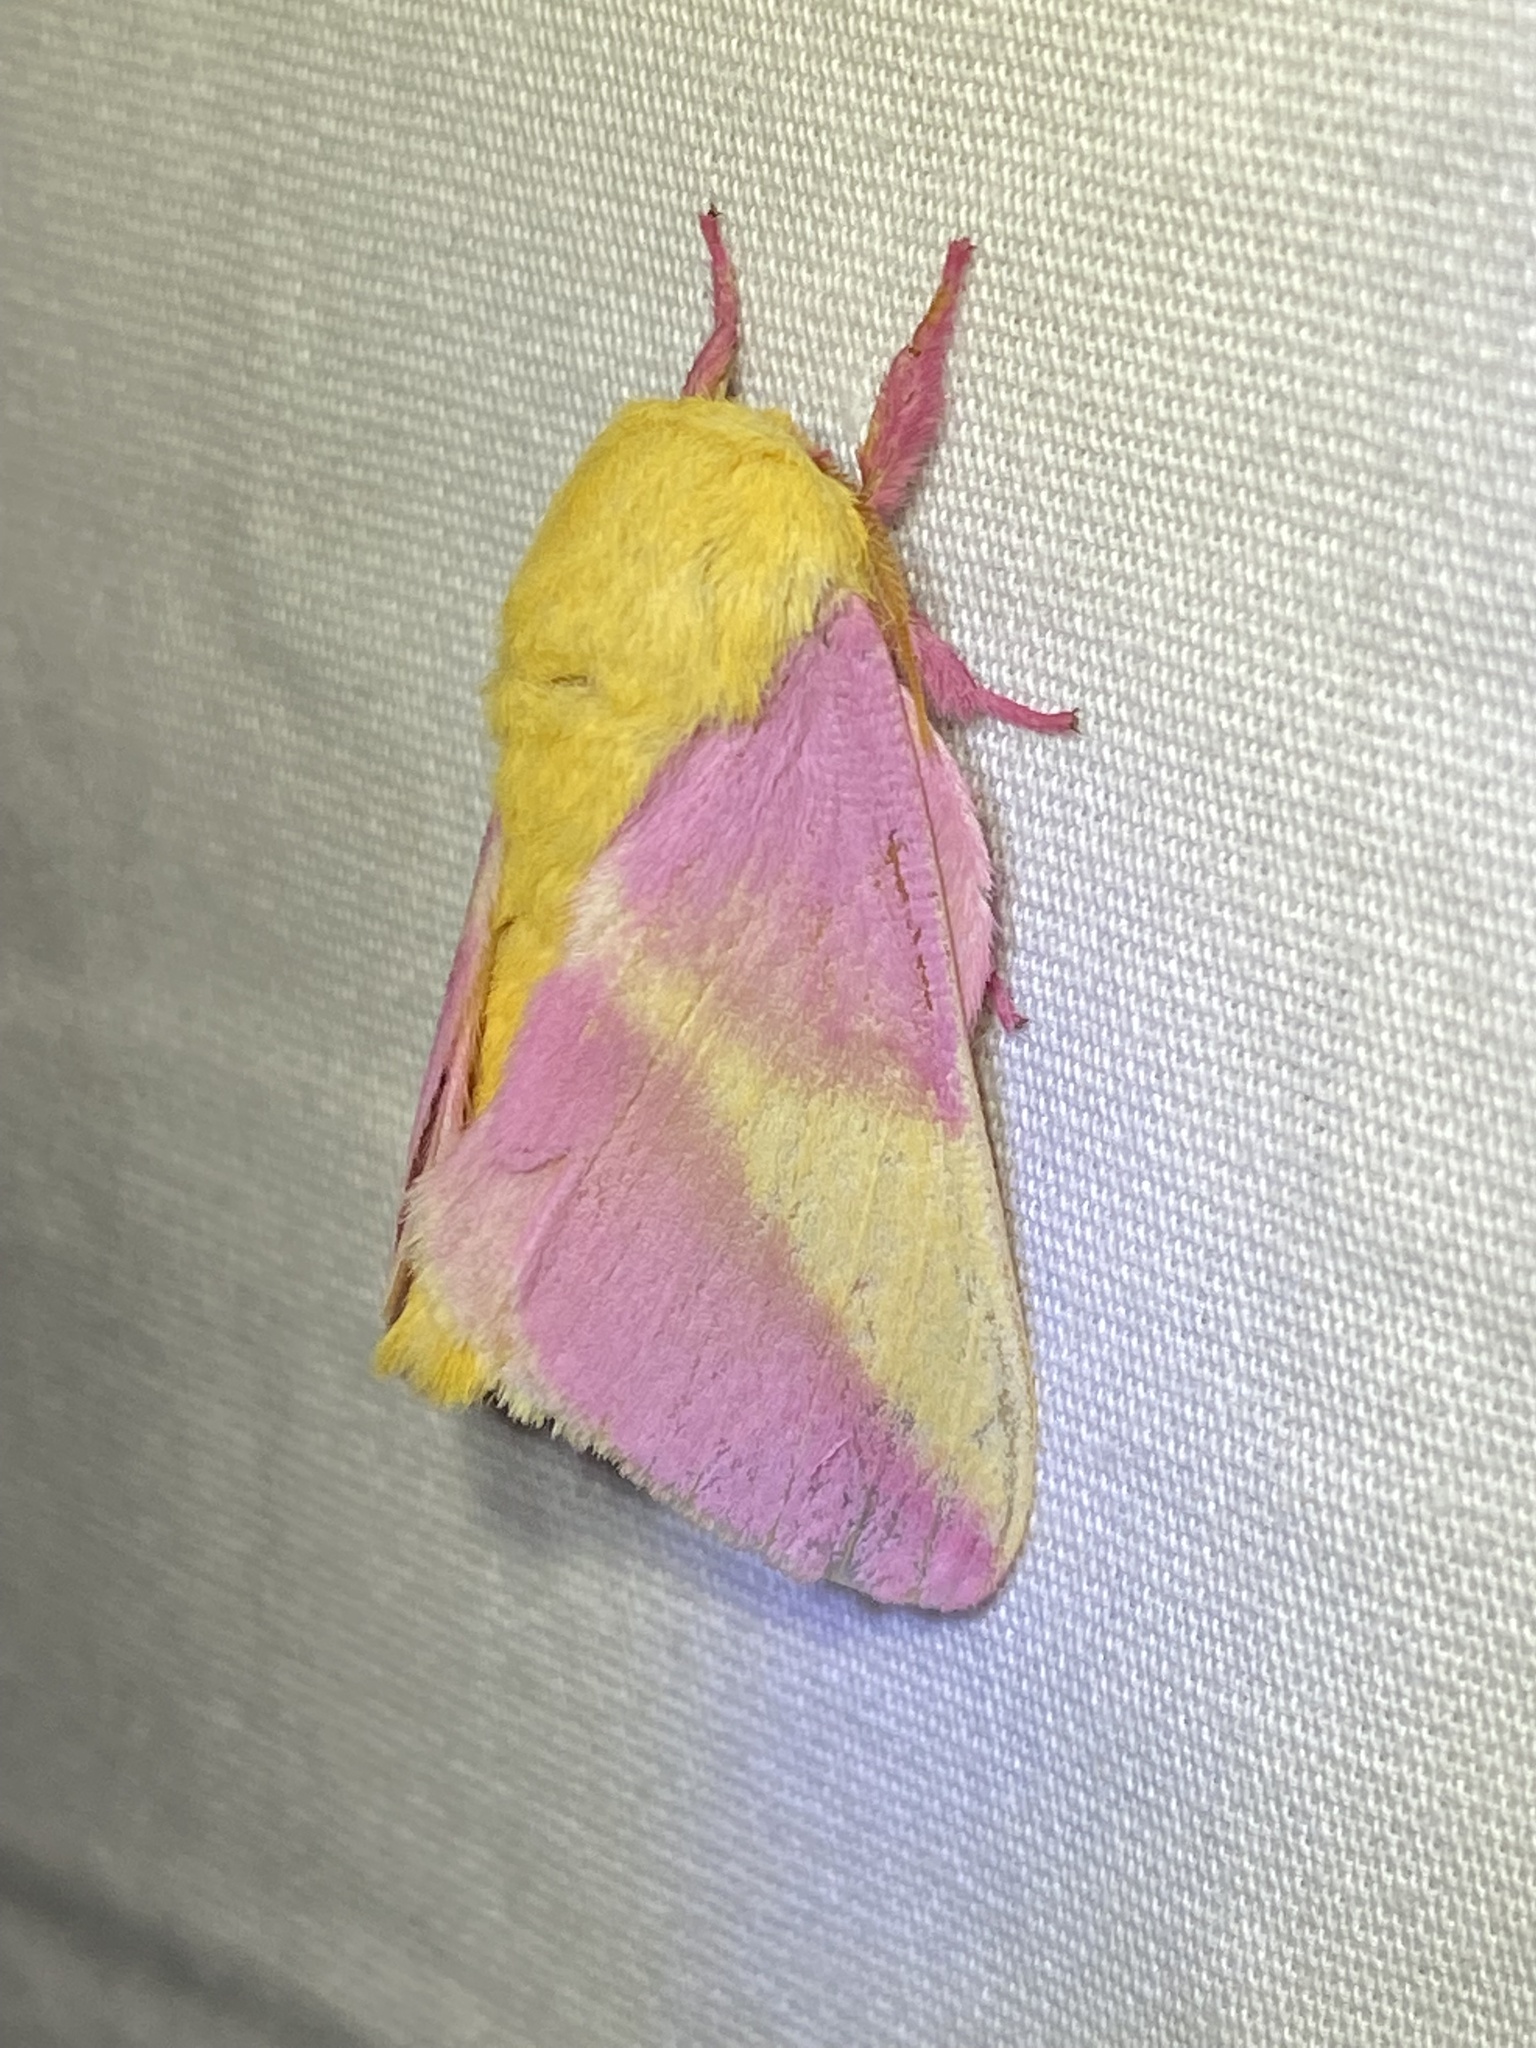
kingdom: Animalia
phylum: Arthropoda
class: Insecta
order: Lepidoptera
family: Saturniidae
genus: Dryocampa
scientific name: Dryocampa rubicunda
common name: Rosy maple moth
